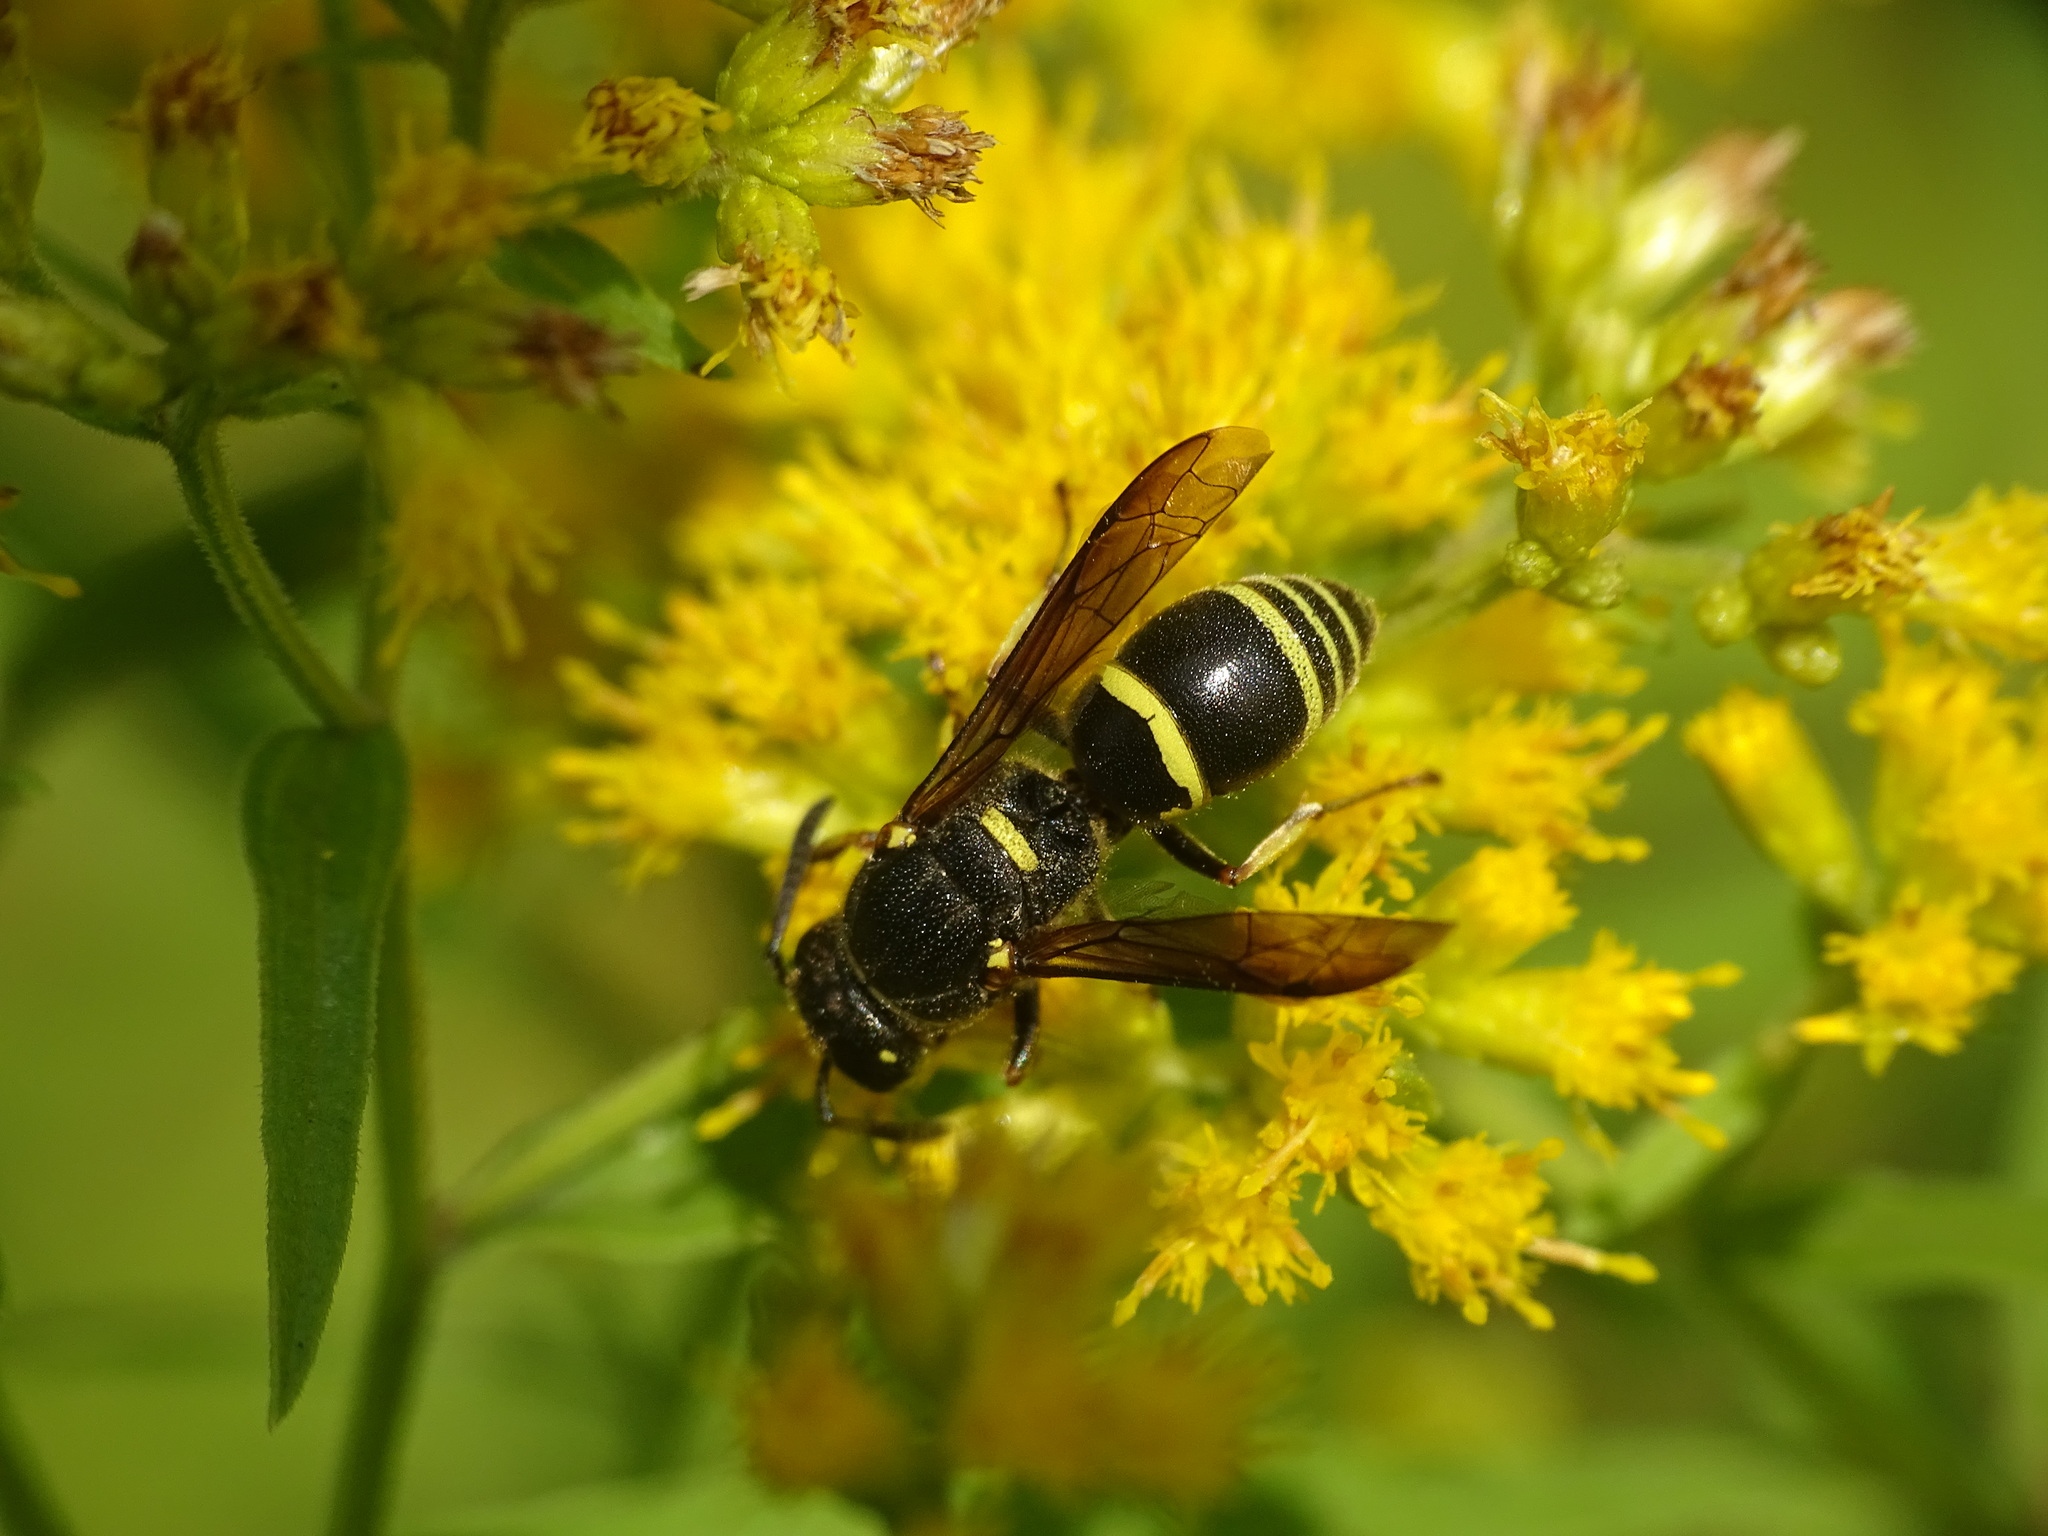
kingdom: Animalia
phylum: Arthropoda
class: Insecta
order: Hymenoptera
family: Eumenidae
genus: Euodynerus
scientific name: Euodynerus foraminatus
